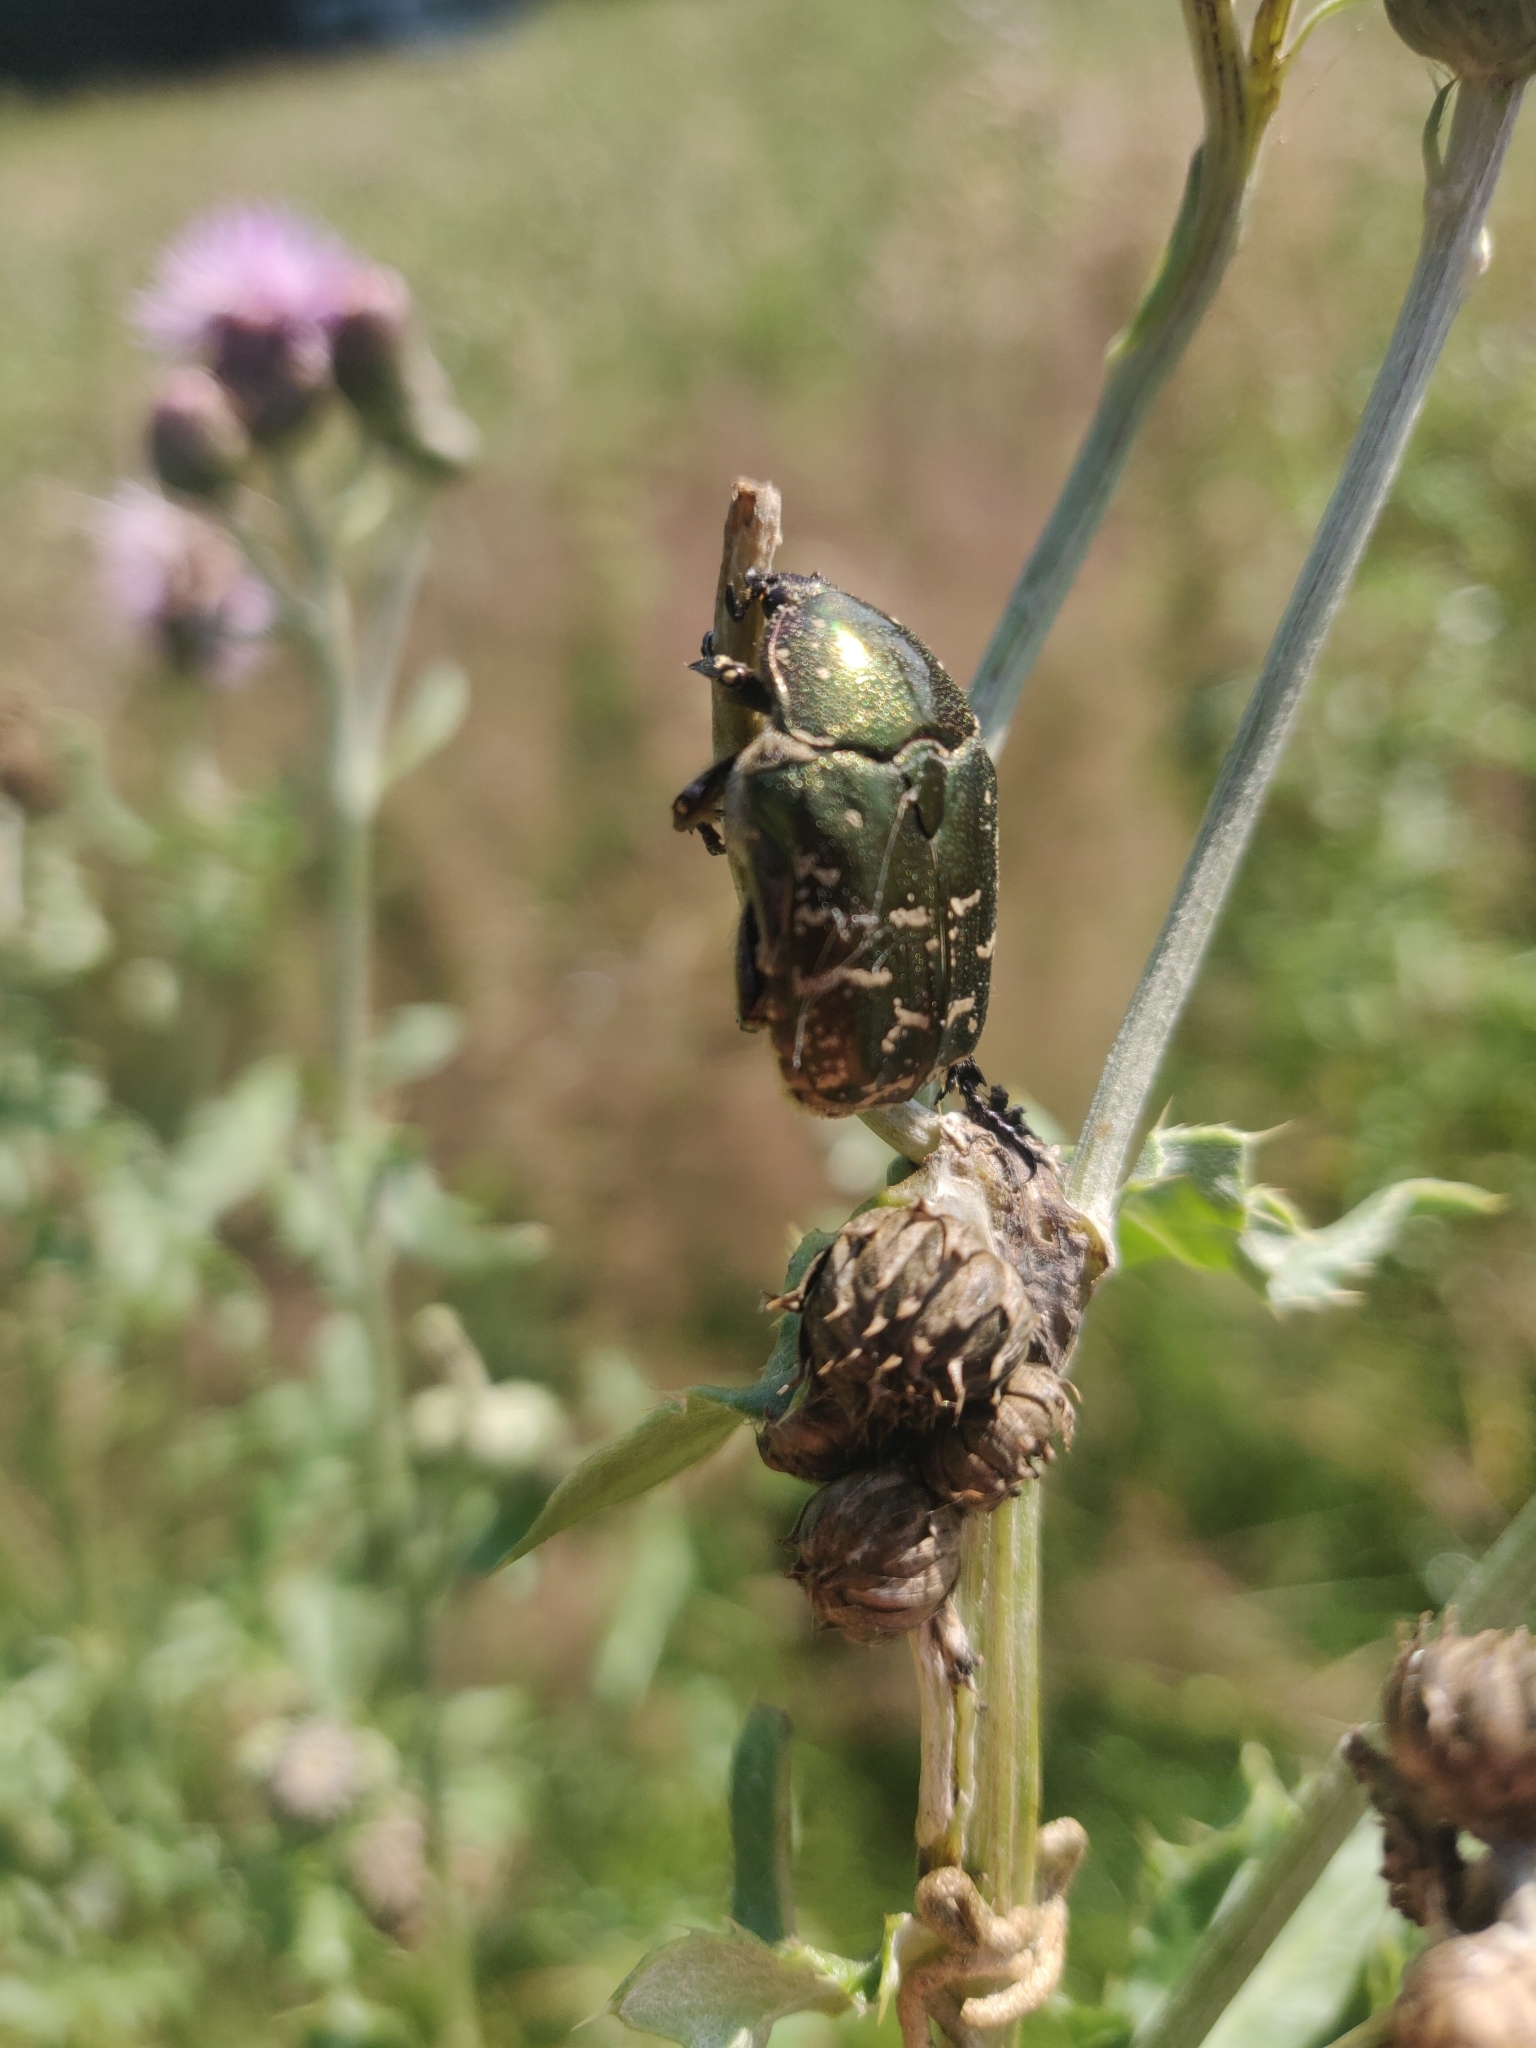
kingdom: Animalia
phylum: Arthropoda
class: Insecta
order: Coleoptera
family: Scarabaeidae
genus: Protaetia
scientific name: Protaetia cuprea
